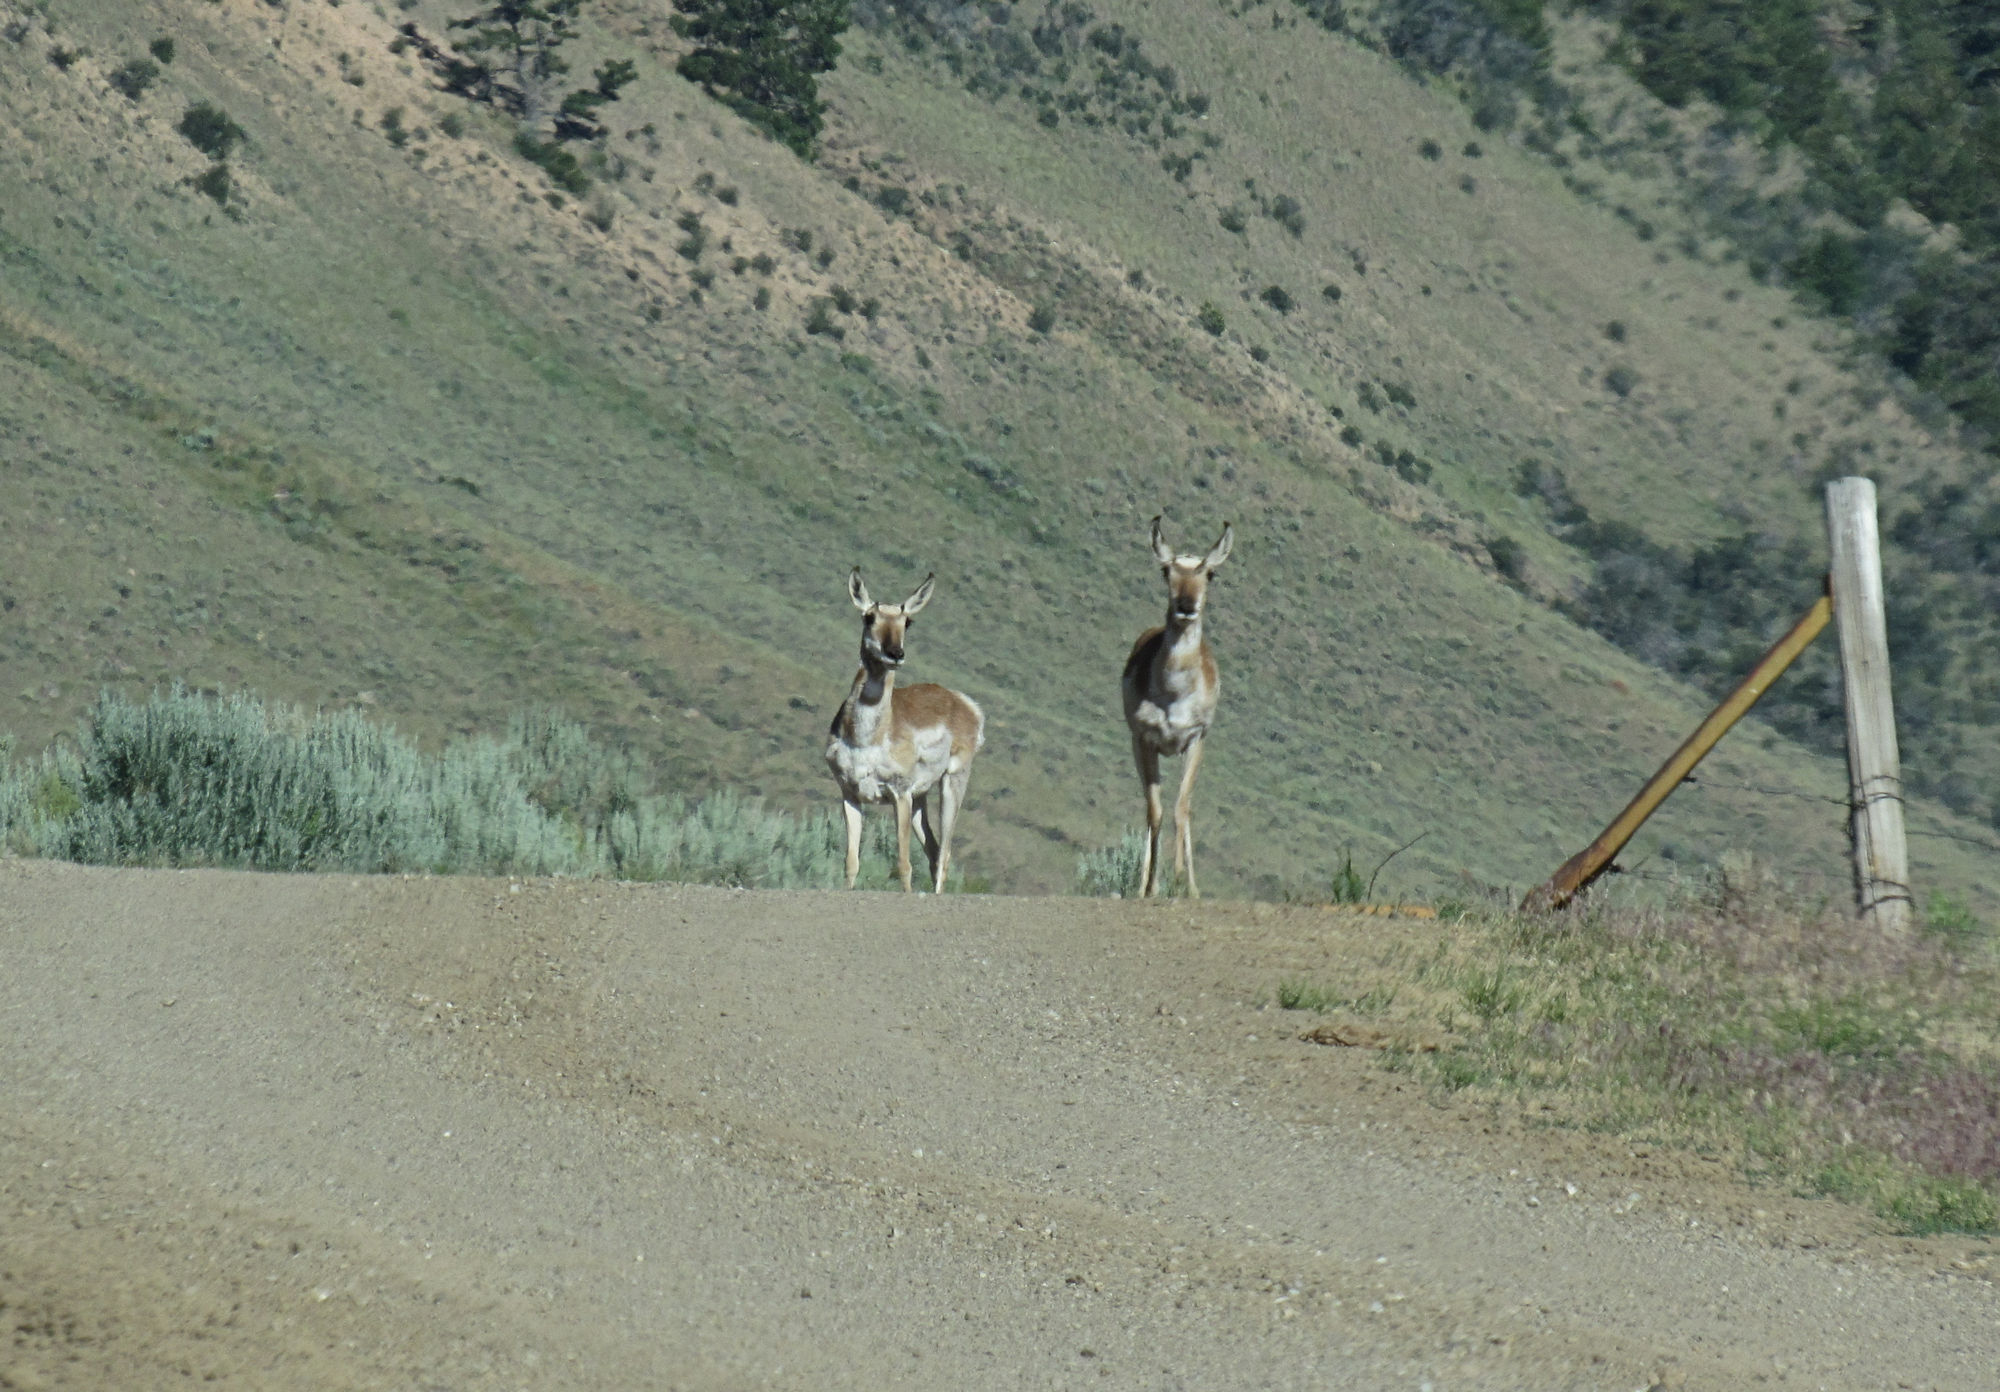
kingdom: Animalia
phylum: Chordata
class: Mammalia
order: Artiodactyla
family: Antilocapridae
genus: Antilocapra
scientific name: Antilocapra americana
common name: Pronghorn
